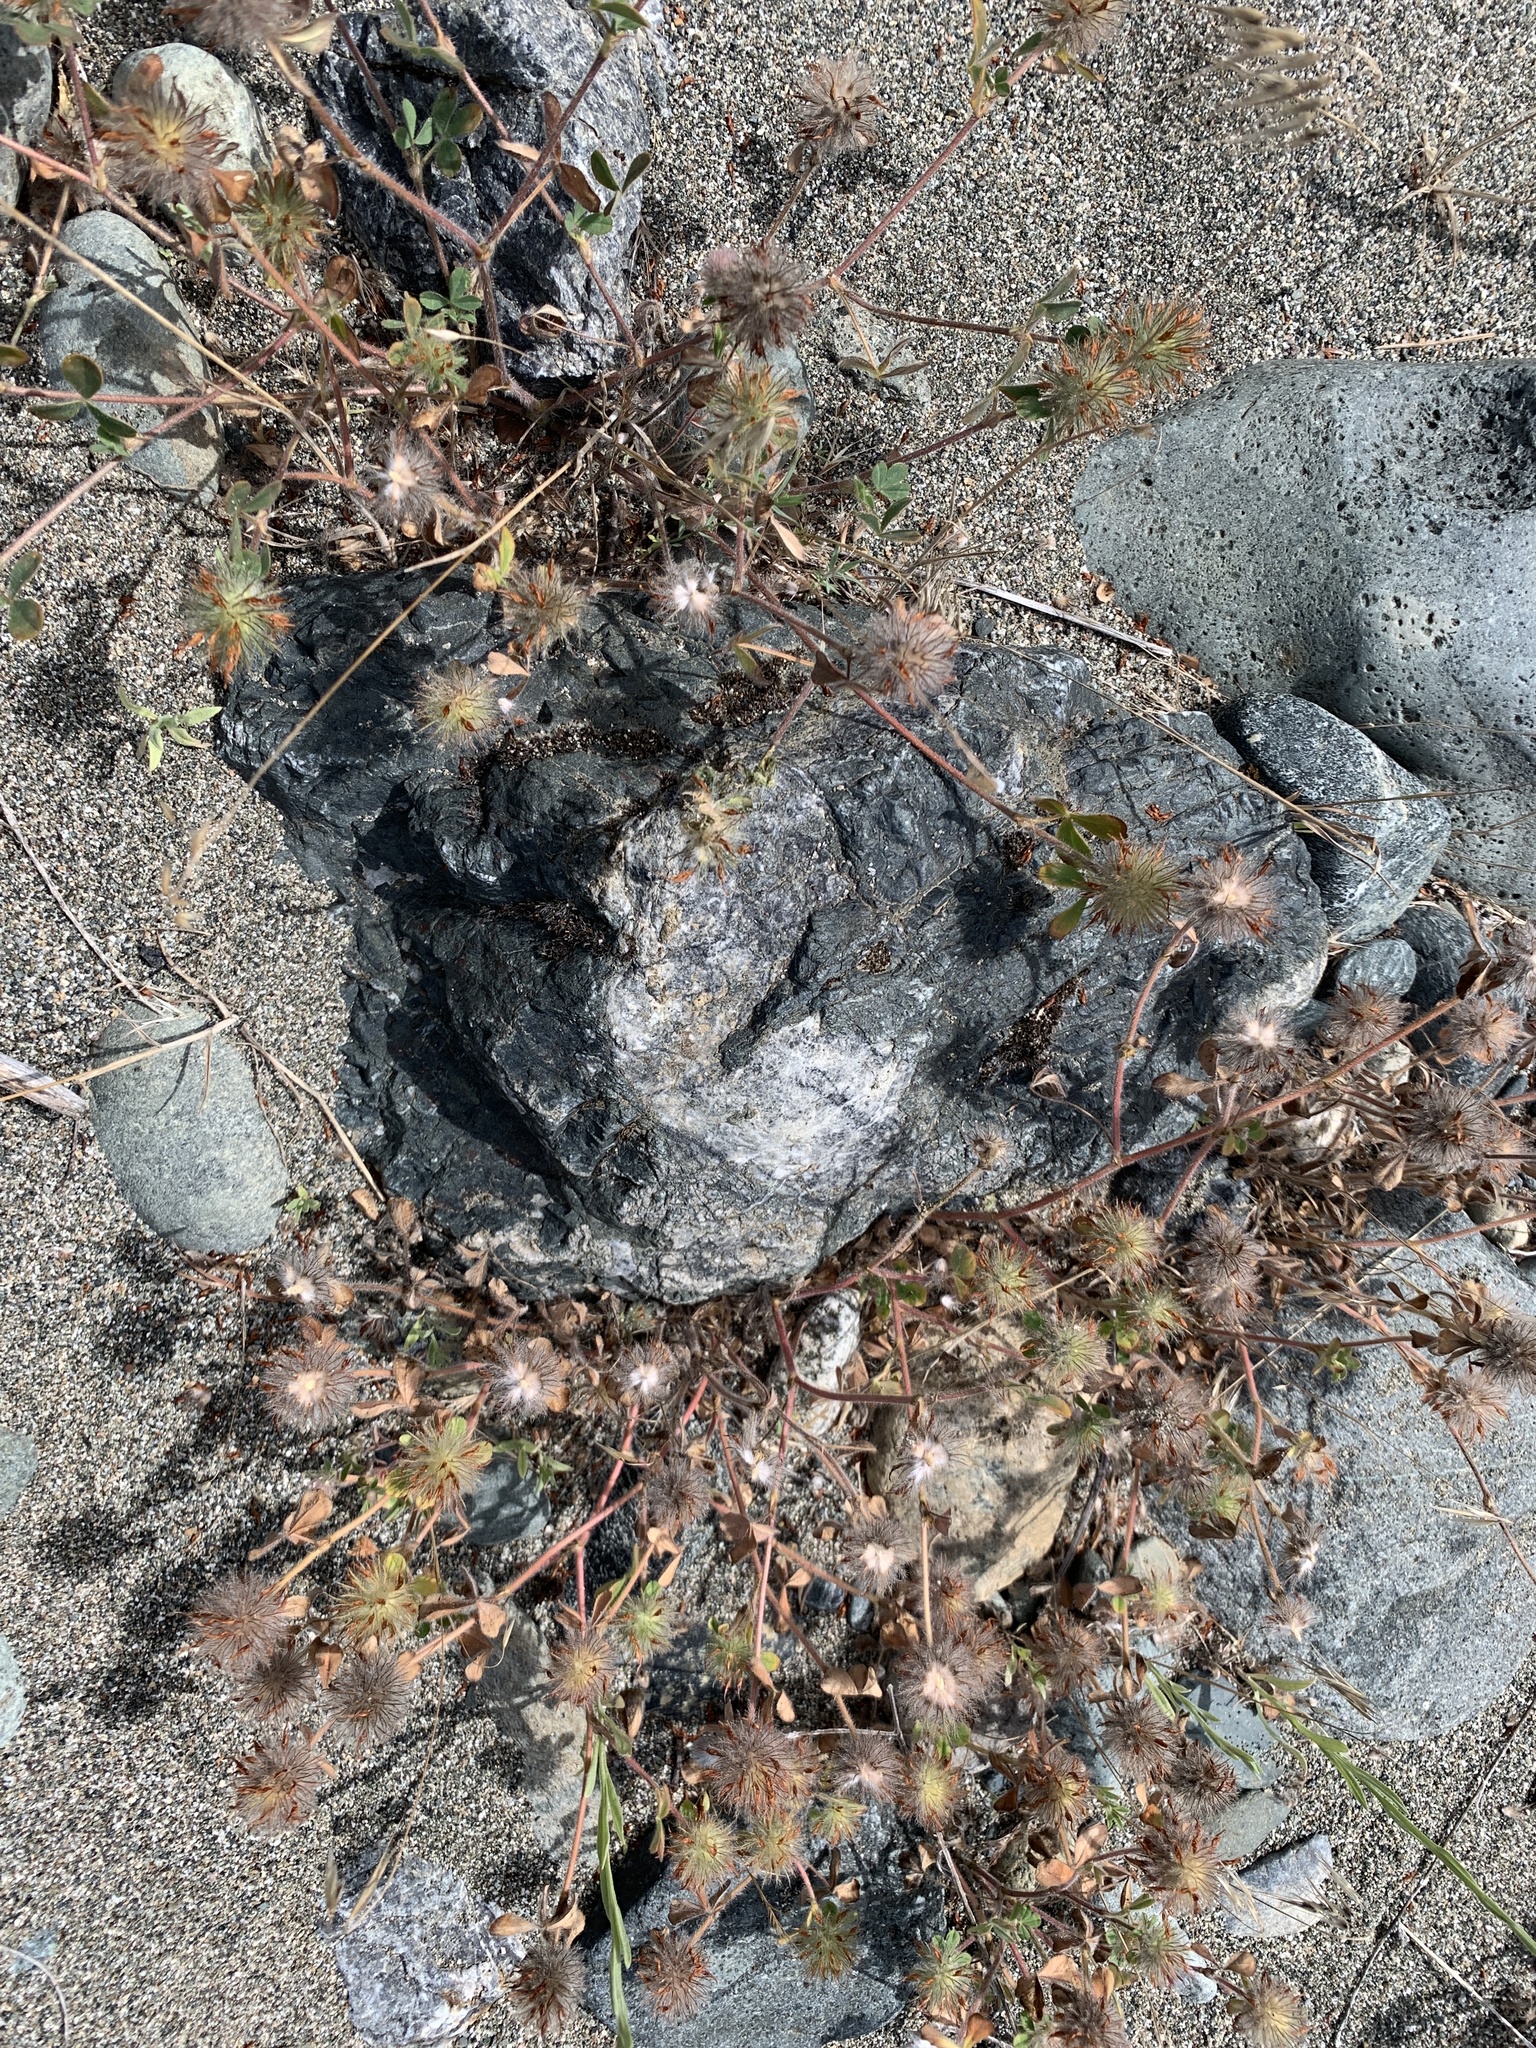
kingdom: Plantae
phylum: Tracheophyta
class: Magnoliopsida
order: Fabales
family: Fabaceae
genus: Trifolium
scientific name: Trifolium hirtum
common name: Rose clover
